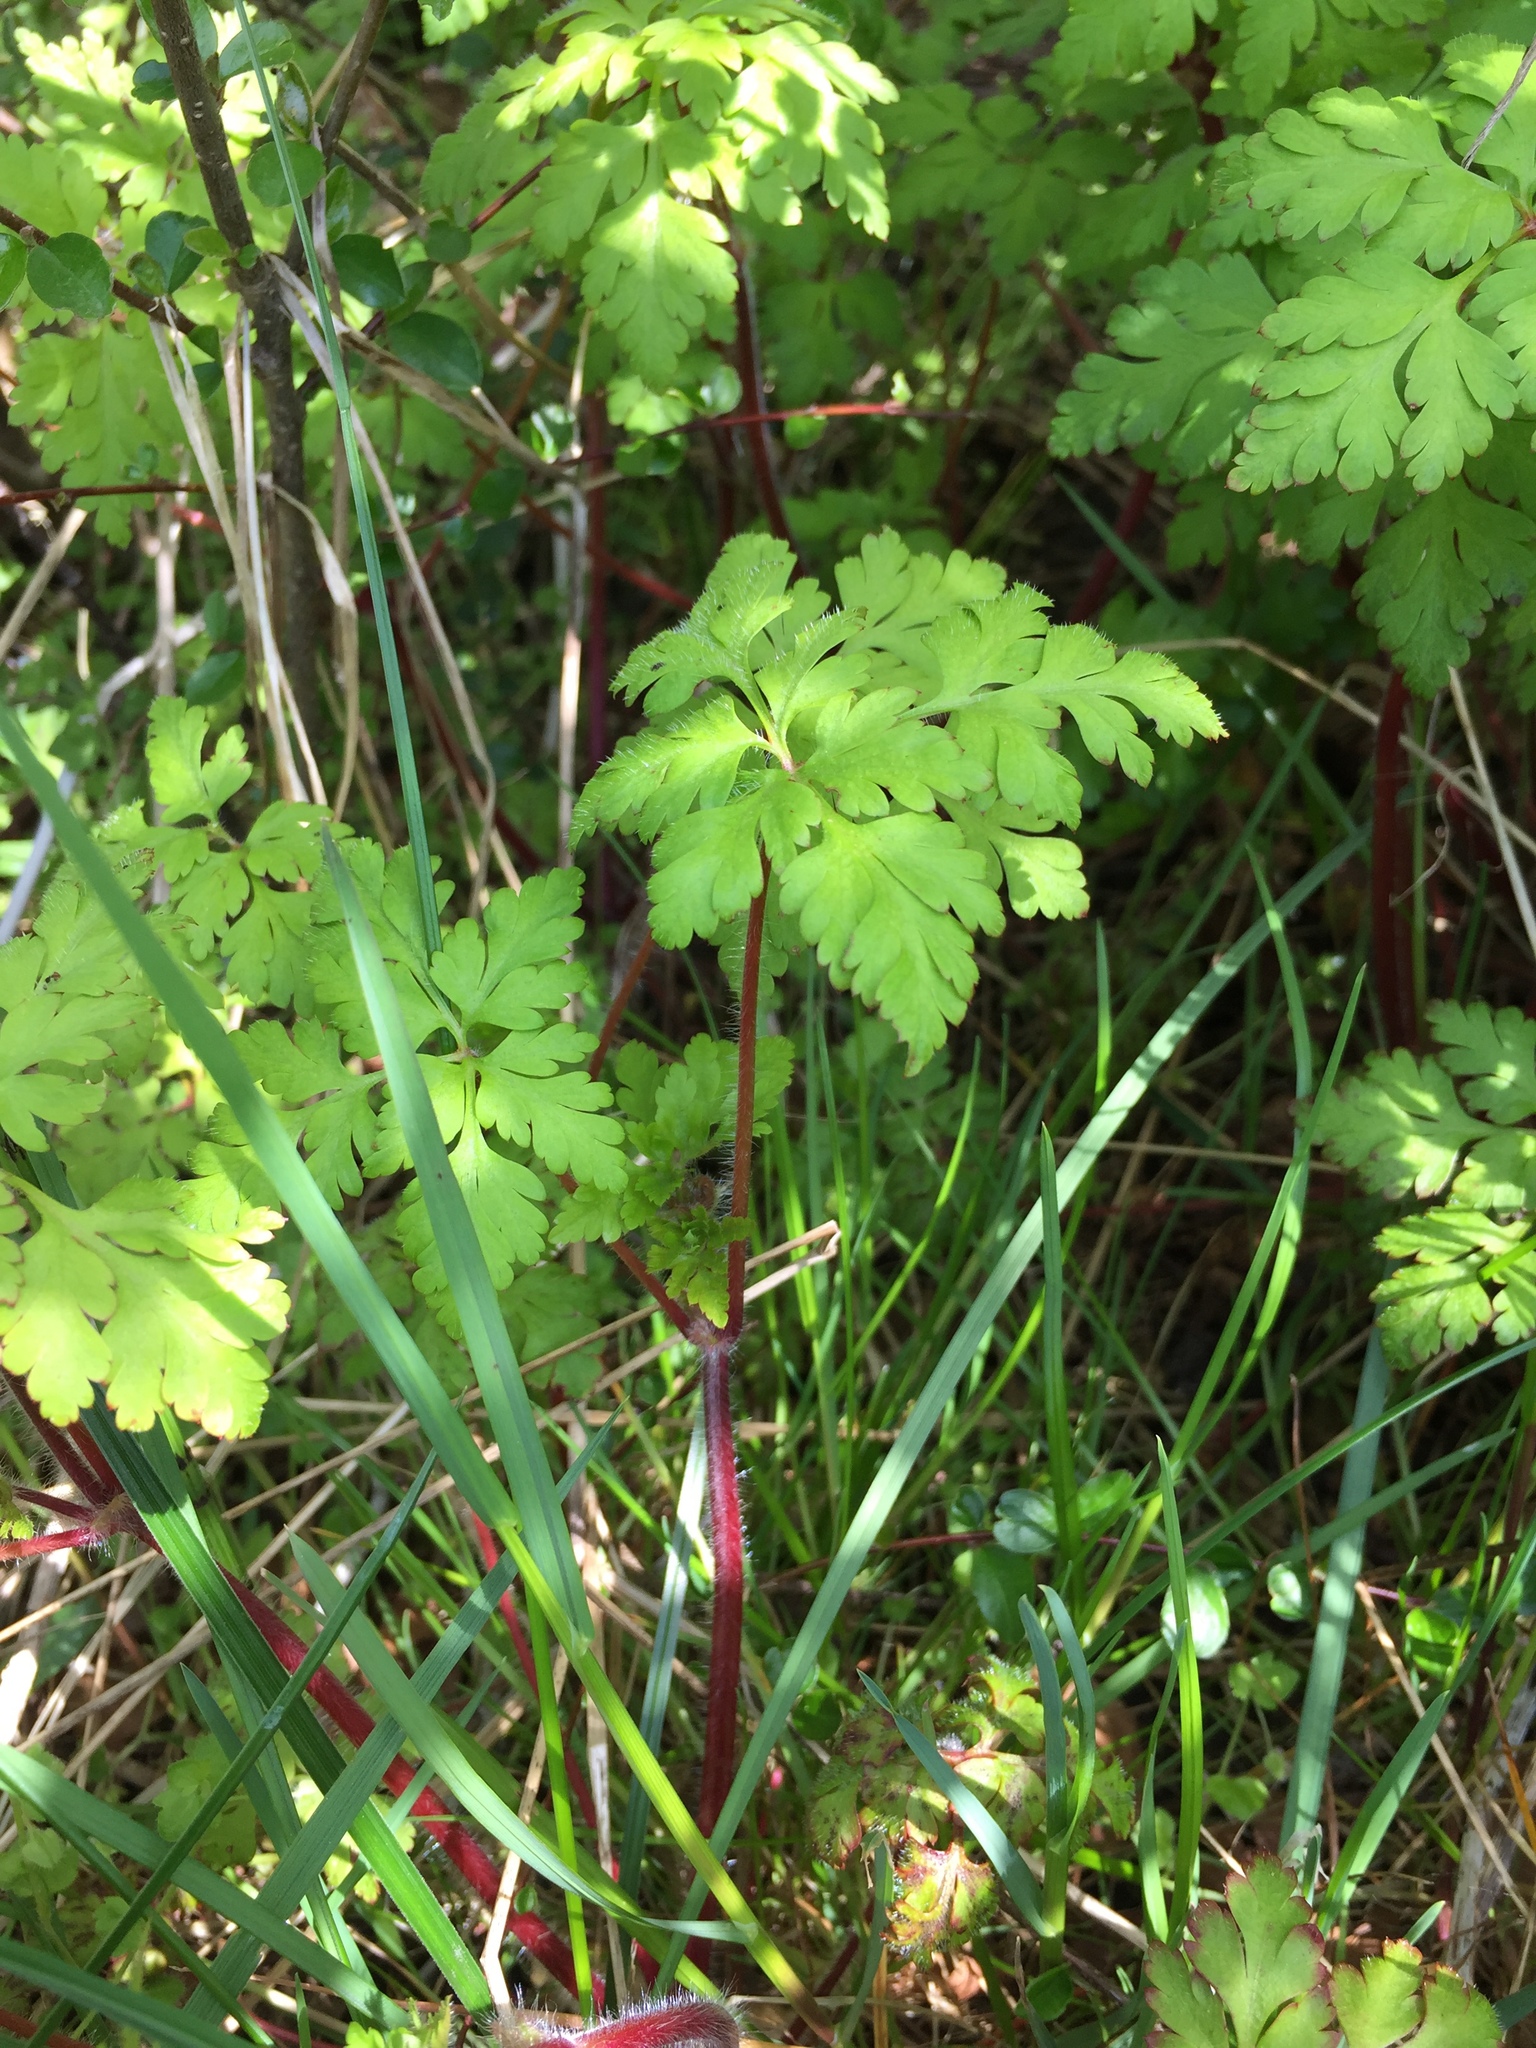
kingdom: Plantae
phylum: Tracheophyta
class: Magnoliopsida
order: Geraniales
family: Geraniaceae
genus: Geranium
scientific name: Geranium robertianum
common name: Herb-robert
